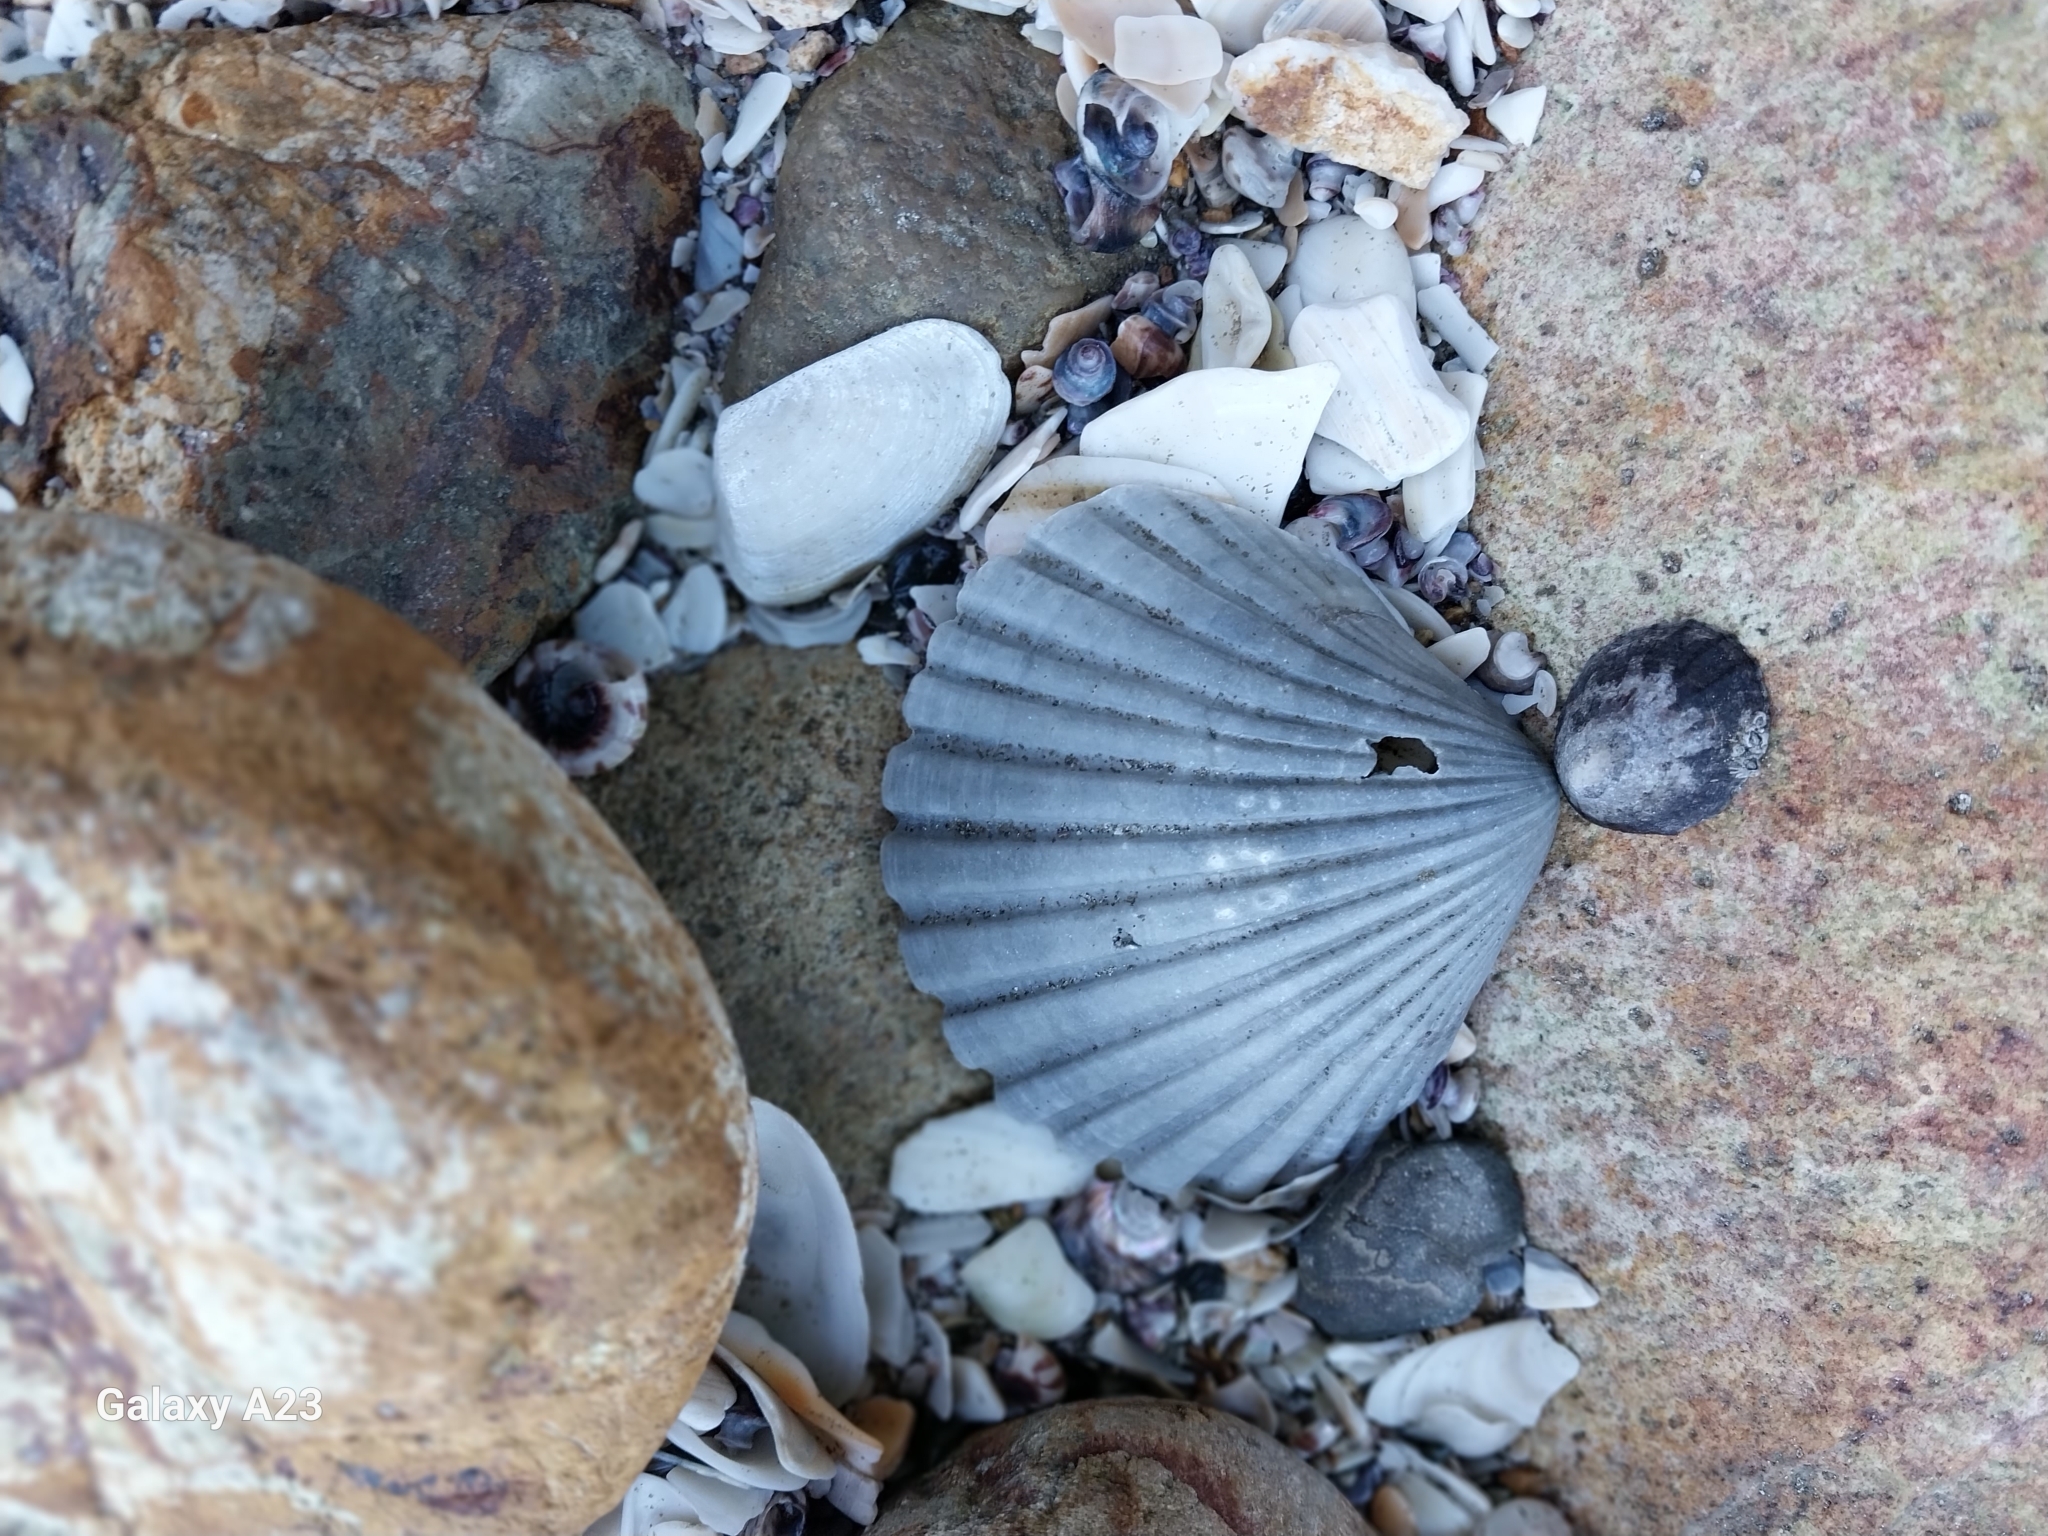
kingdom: Animalia
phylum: Mollusca
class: Bivalvia
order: Pectinida
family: Pectinidae
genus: Pecten
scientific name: Pecten novaezelandiae
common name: New zealand scallop
